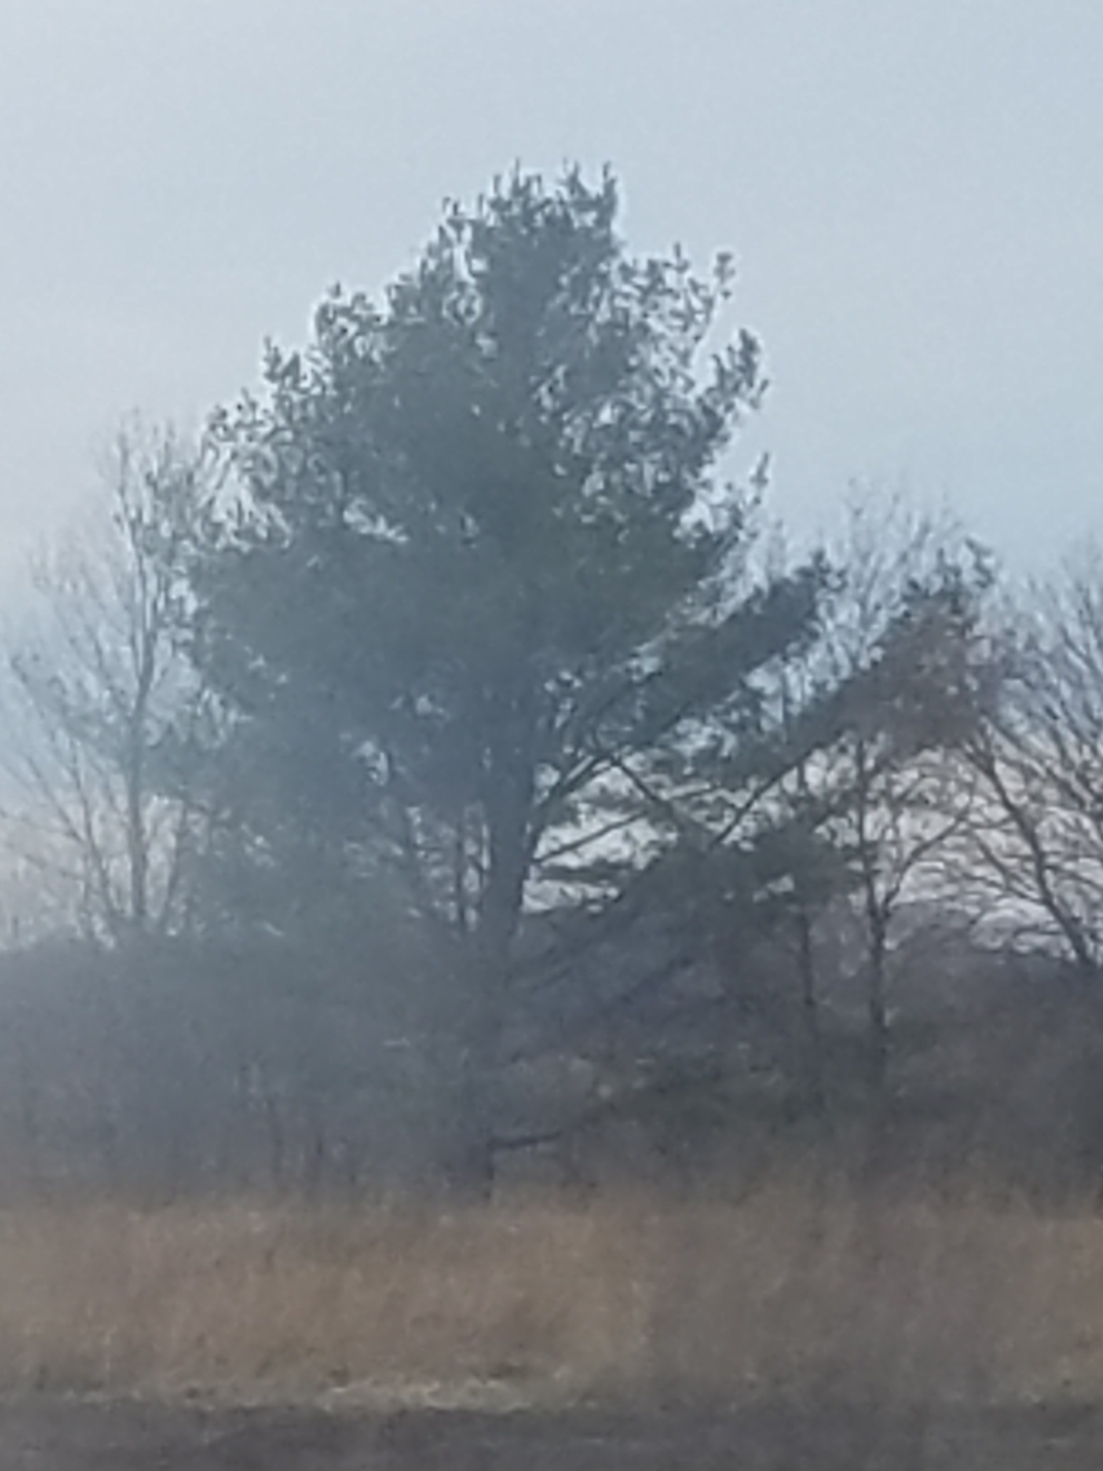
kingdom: Plantae
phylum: Tracheophyta
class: Pinopsida
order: Pinales
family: Pinaceae
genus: Pinus
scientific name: Pinus strobus
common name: Weymouth pine
